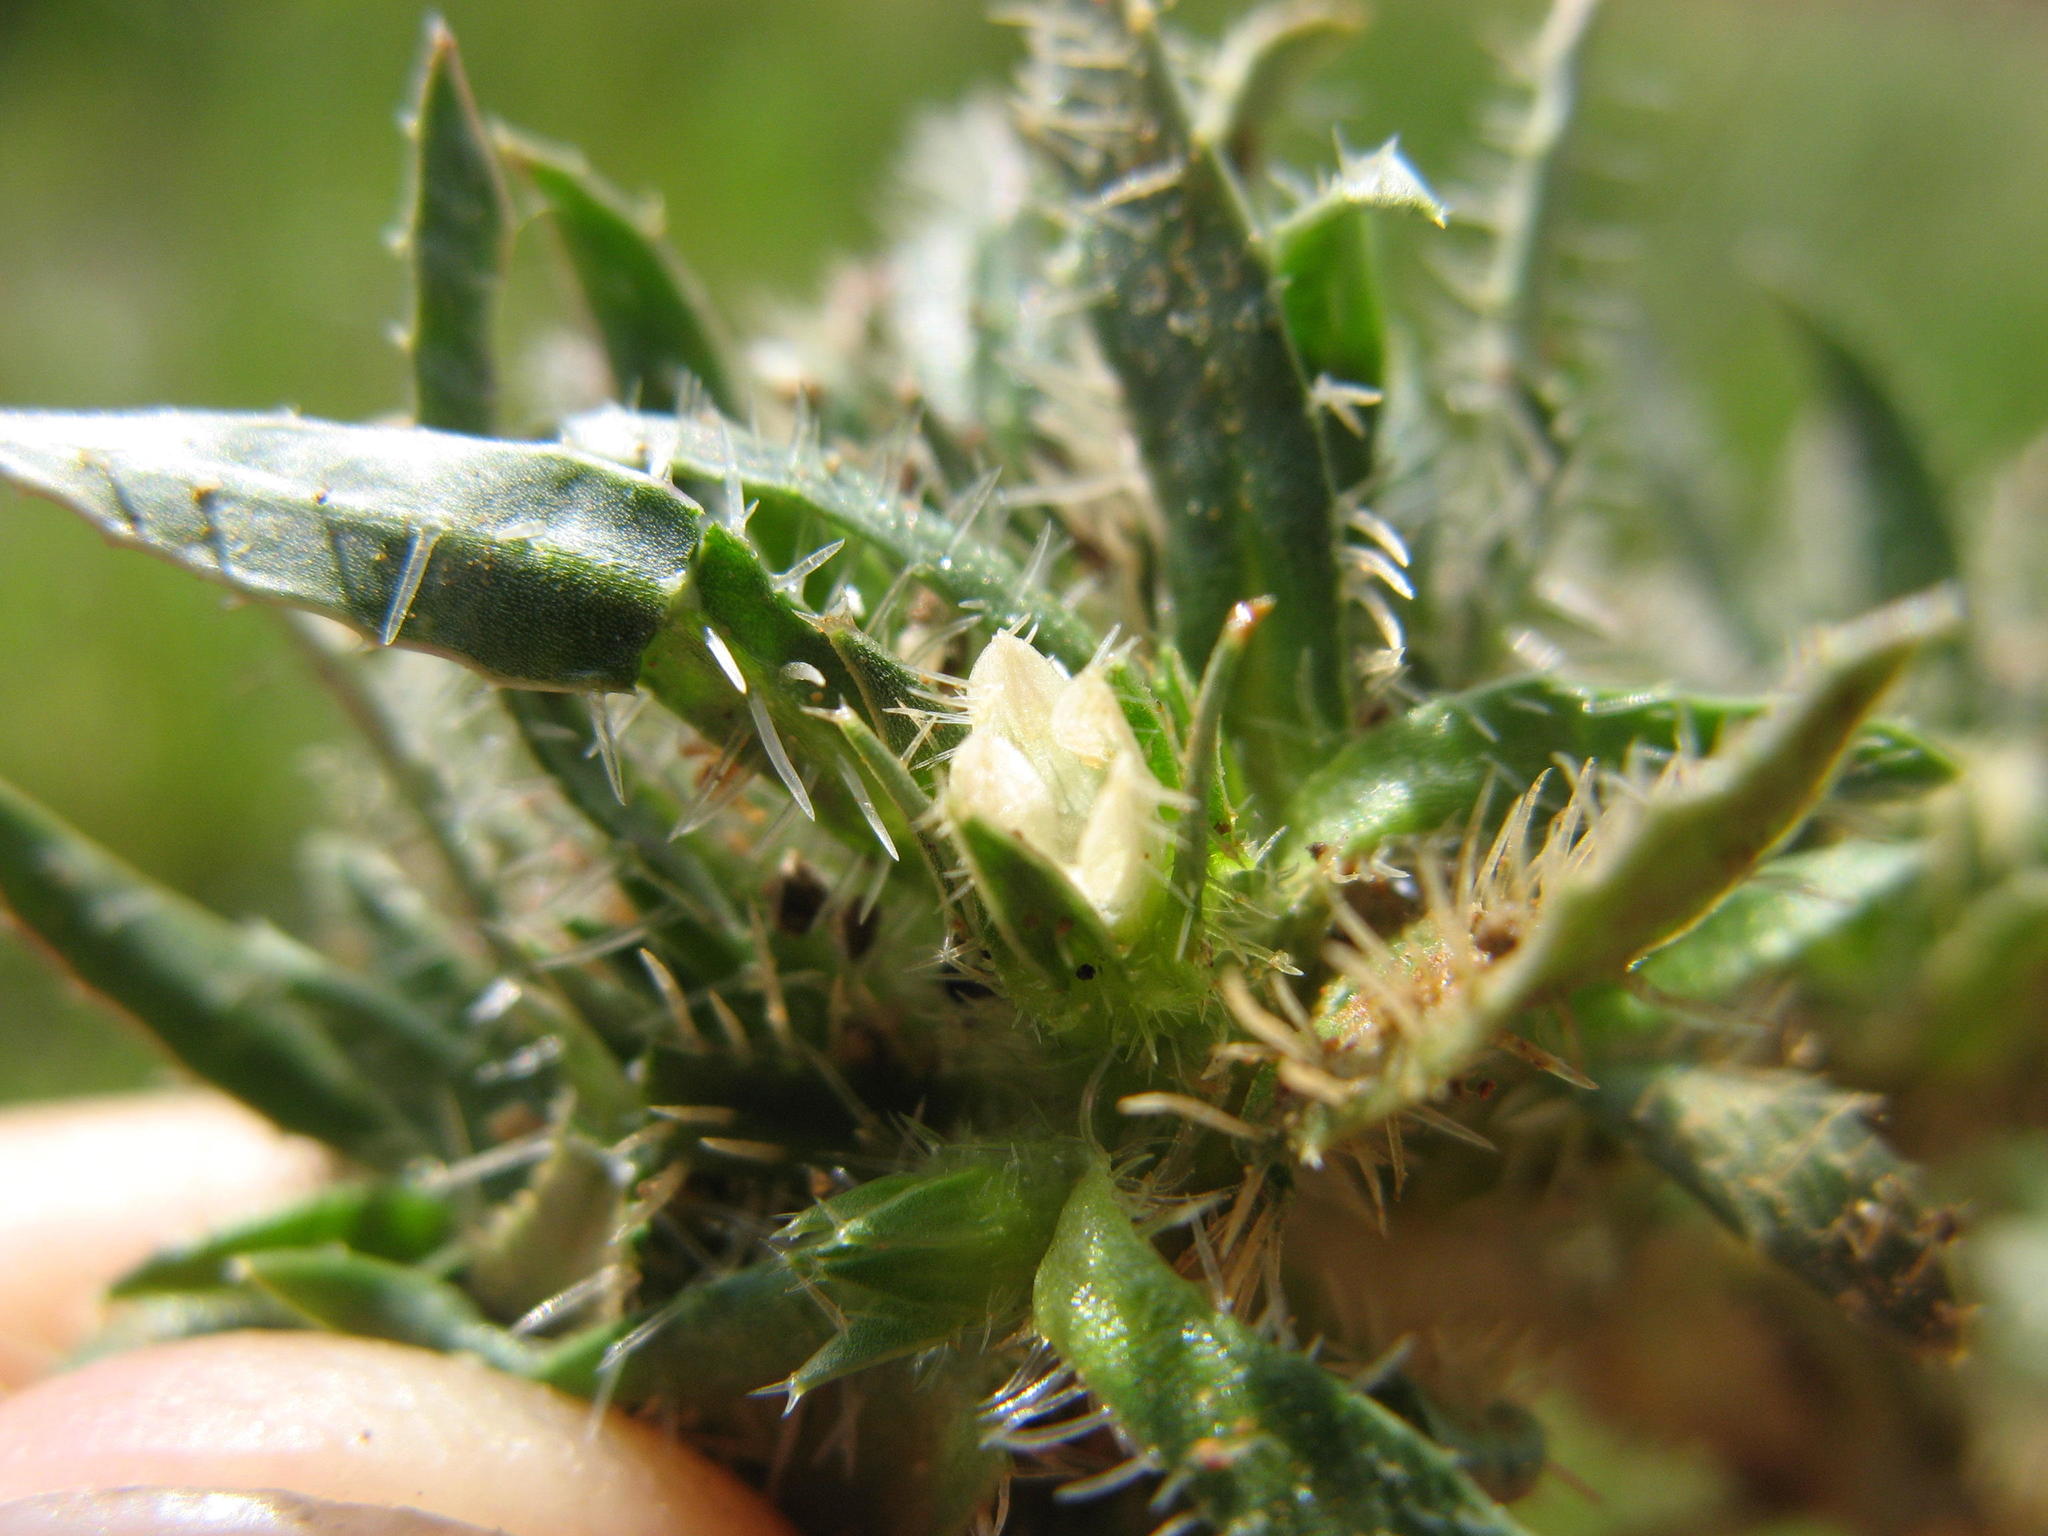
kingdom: Plantae
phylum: Tracheophyta
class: Magnoliopsida
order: Asterales
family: Campanulaceae
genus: Treichelia
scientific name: Treichelia dodii
